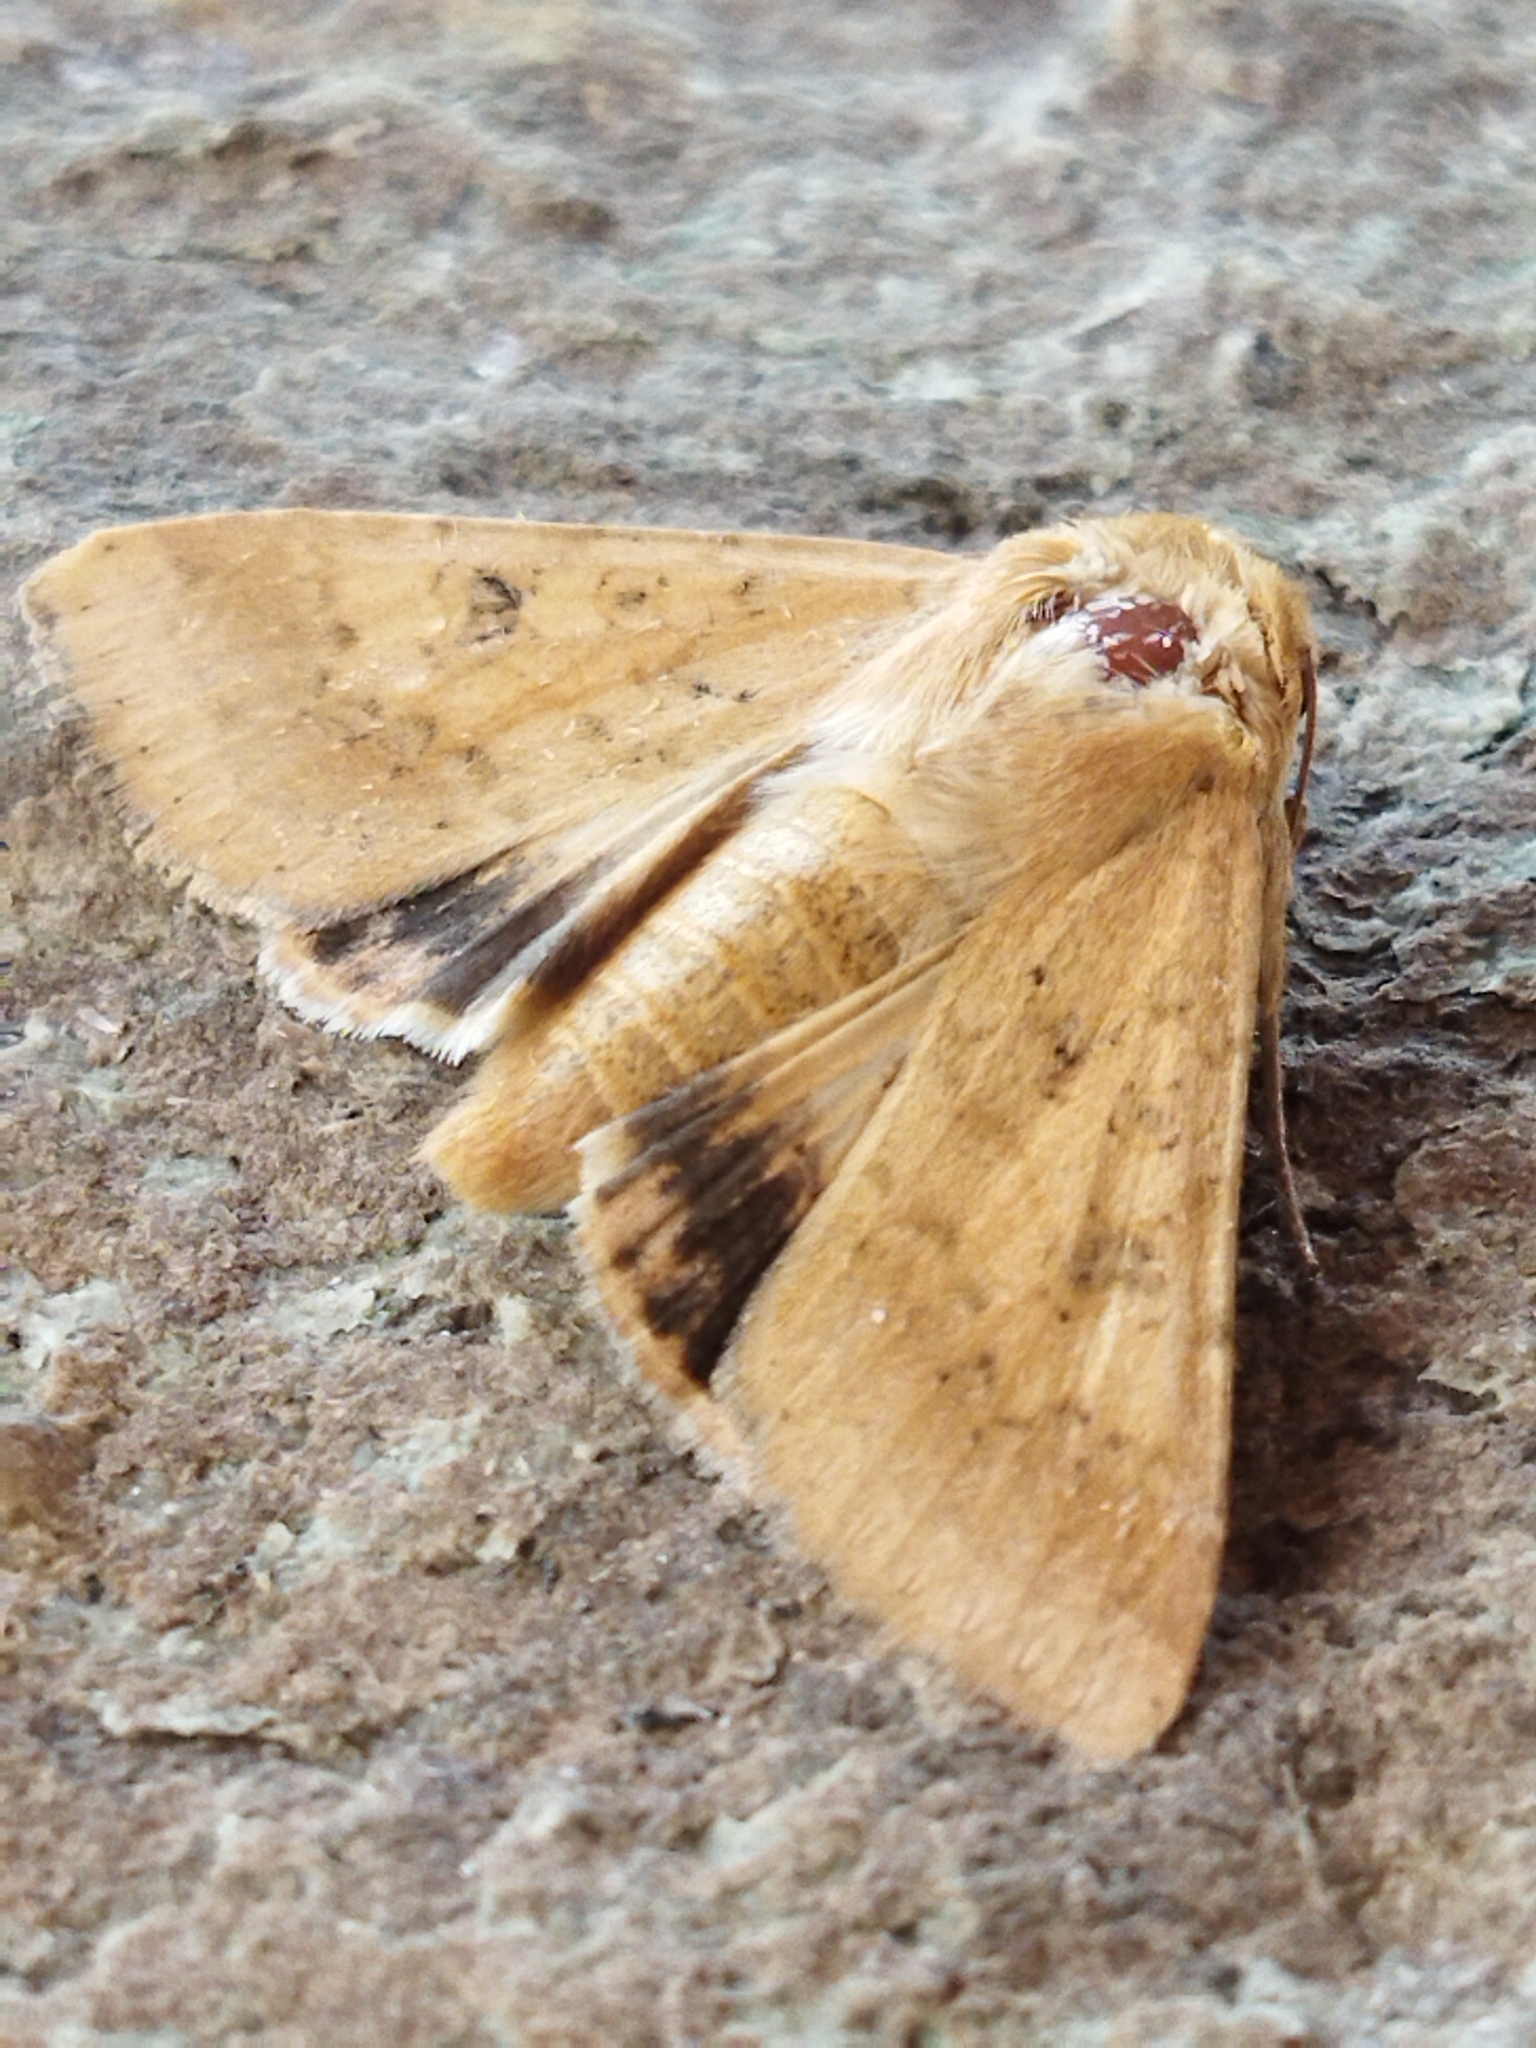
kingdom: Animalia
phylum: Arthropoda
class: Insecta
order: Lepidoptera
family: Noctuidae
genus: Helicoverpa
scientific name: Helicoverpa armigera
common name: Cotton bollworm
